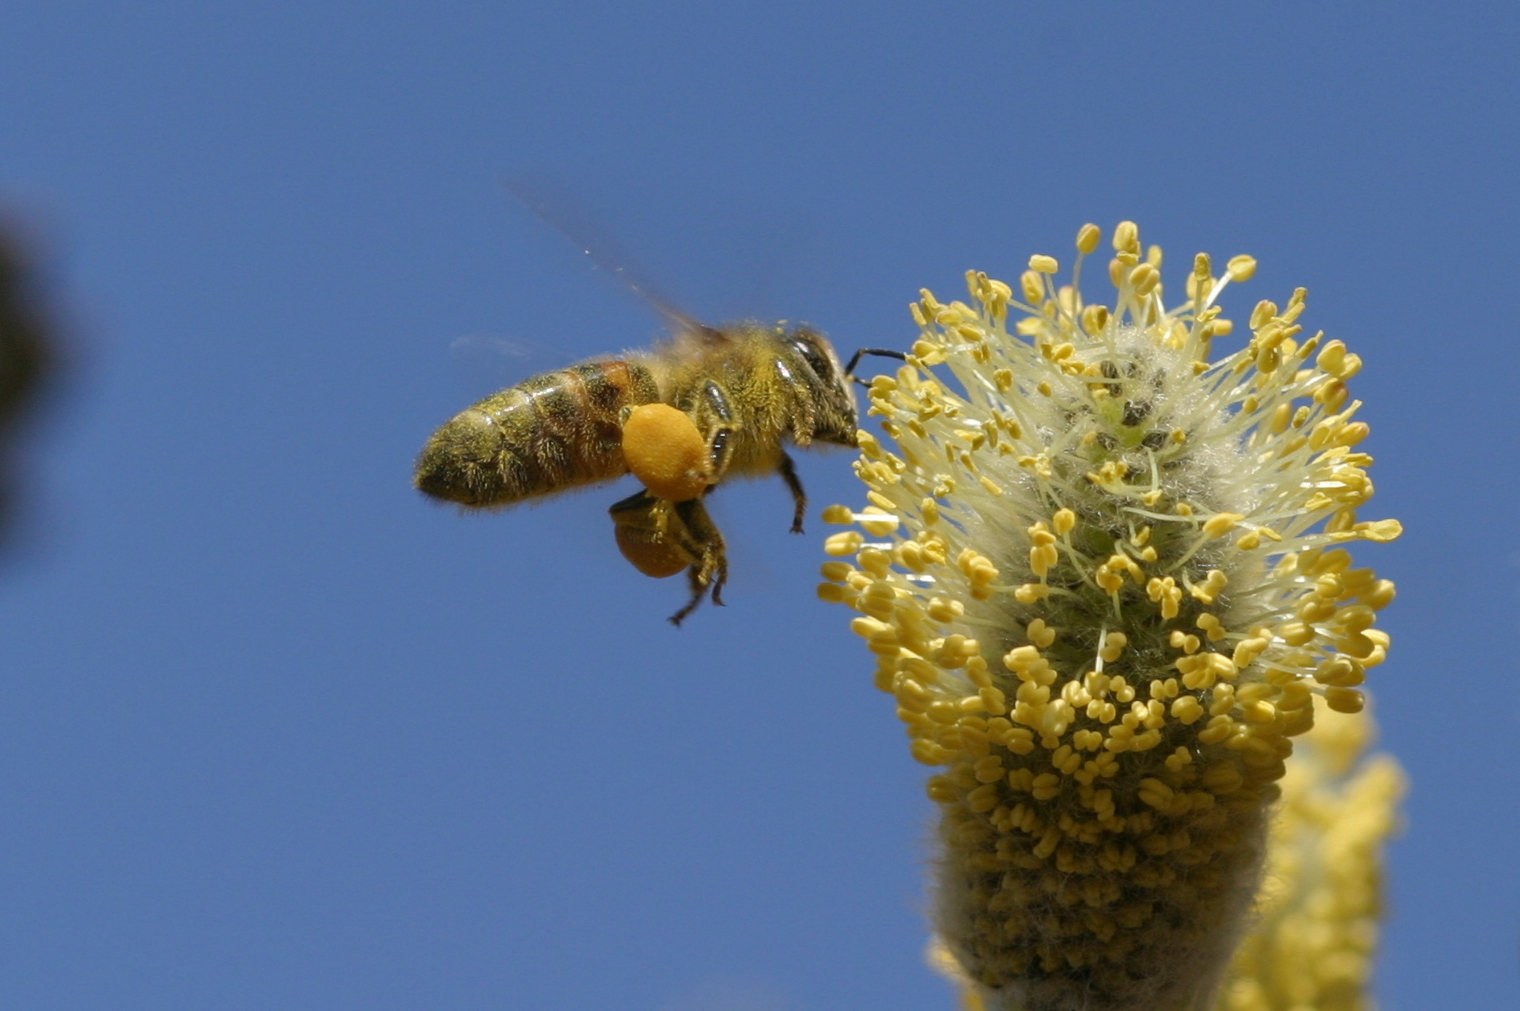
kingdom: Animalia
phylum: Arthropoda
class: Insecta
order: Hymenoptera
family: Apidae
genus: Apis
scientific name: Apis mellifera
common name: Honey bee
